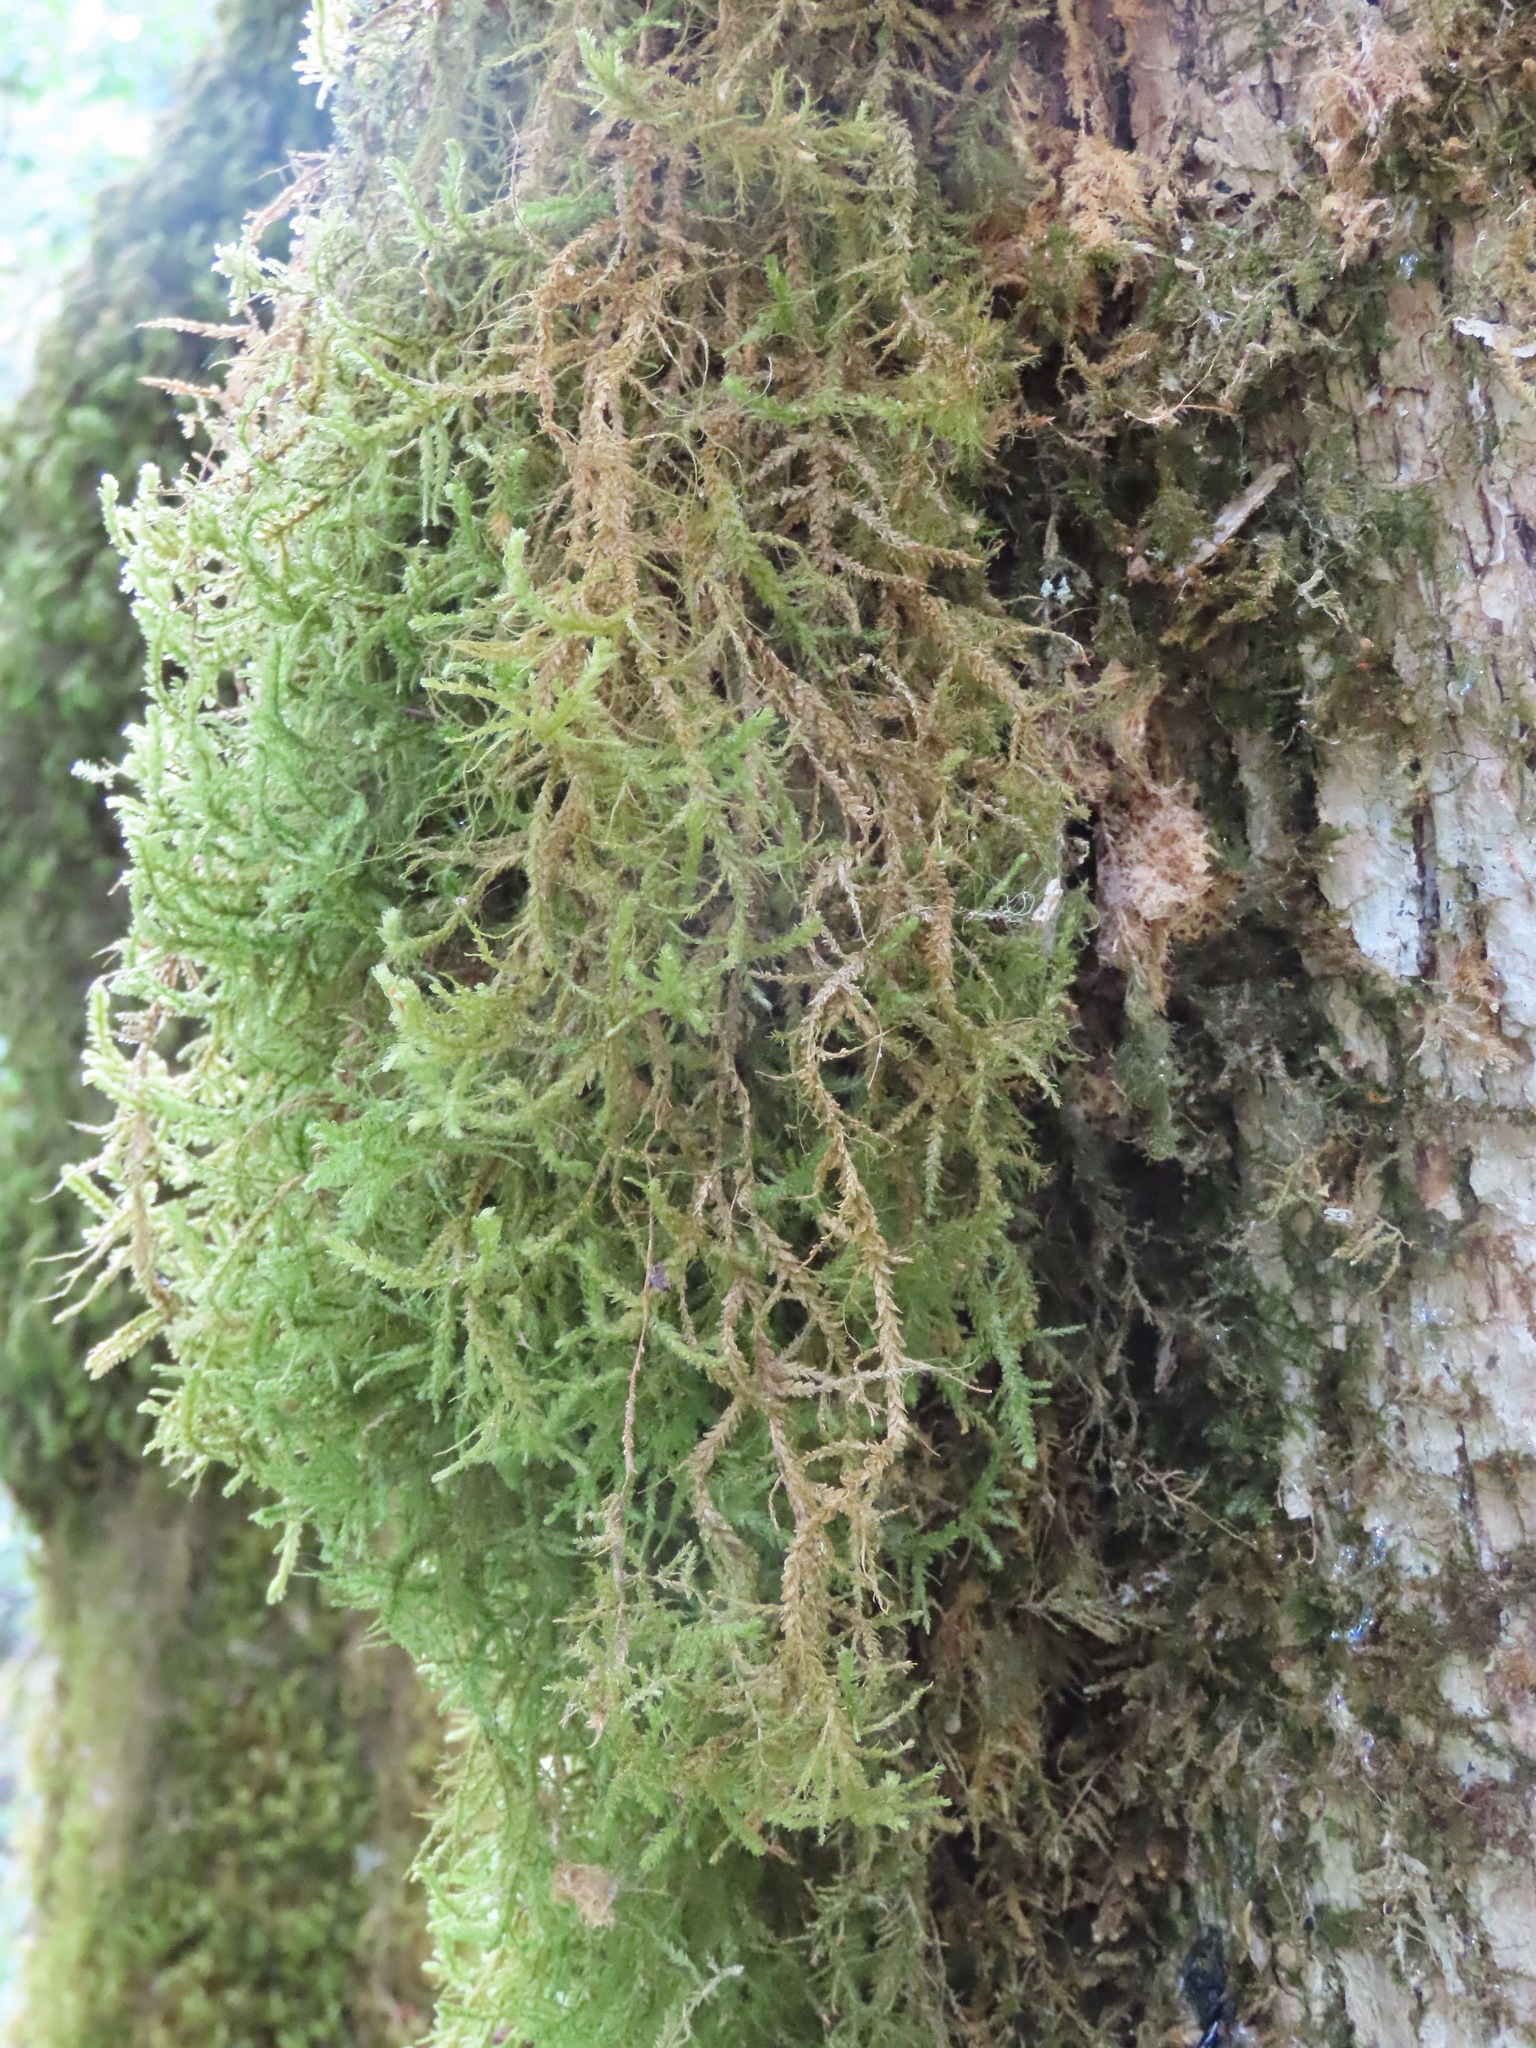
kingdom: Plantae
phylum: Bryophyta
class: Bryopsida
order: Hypnales
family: Neckeraceae
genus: Neckera
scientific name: Neckera douglasii
